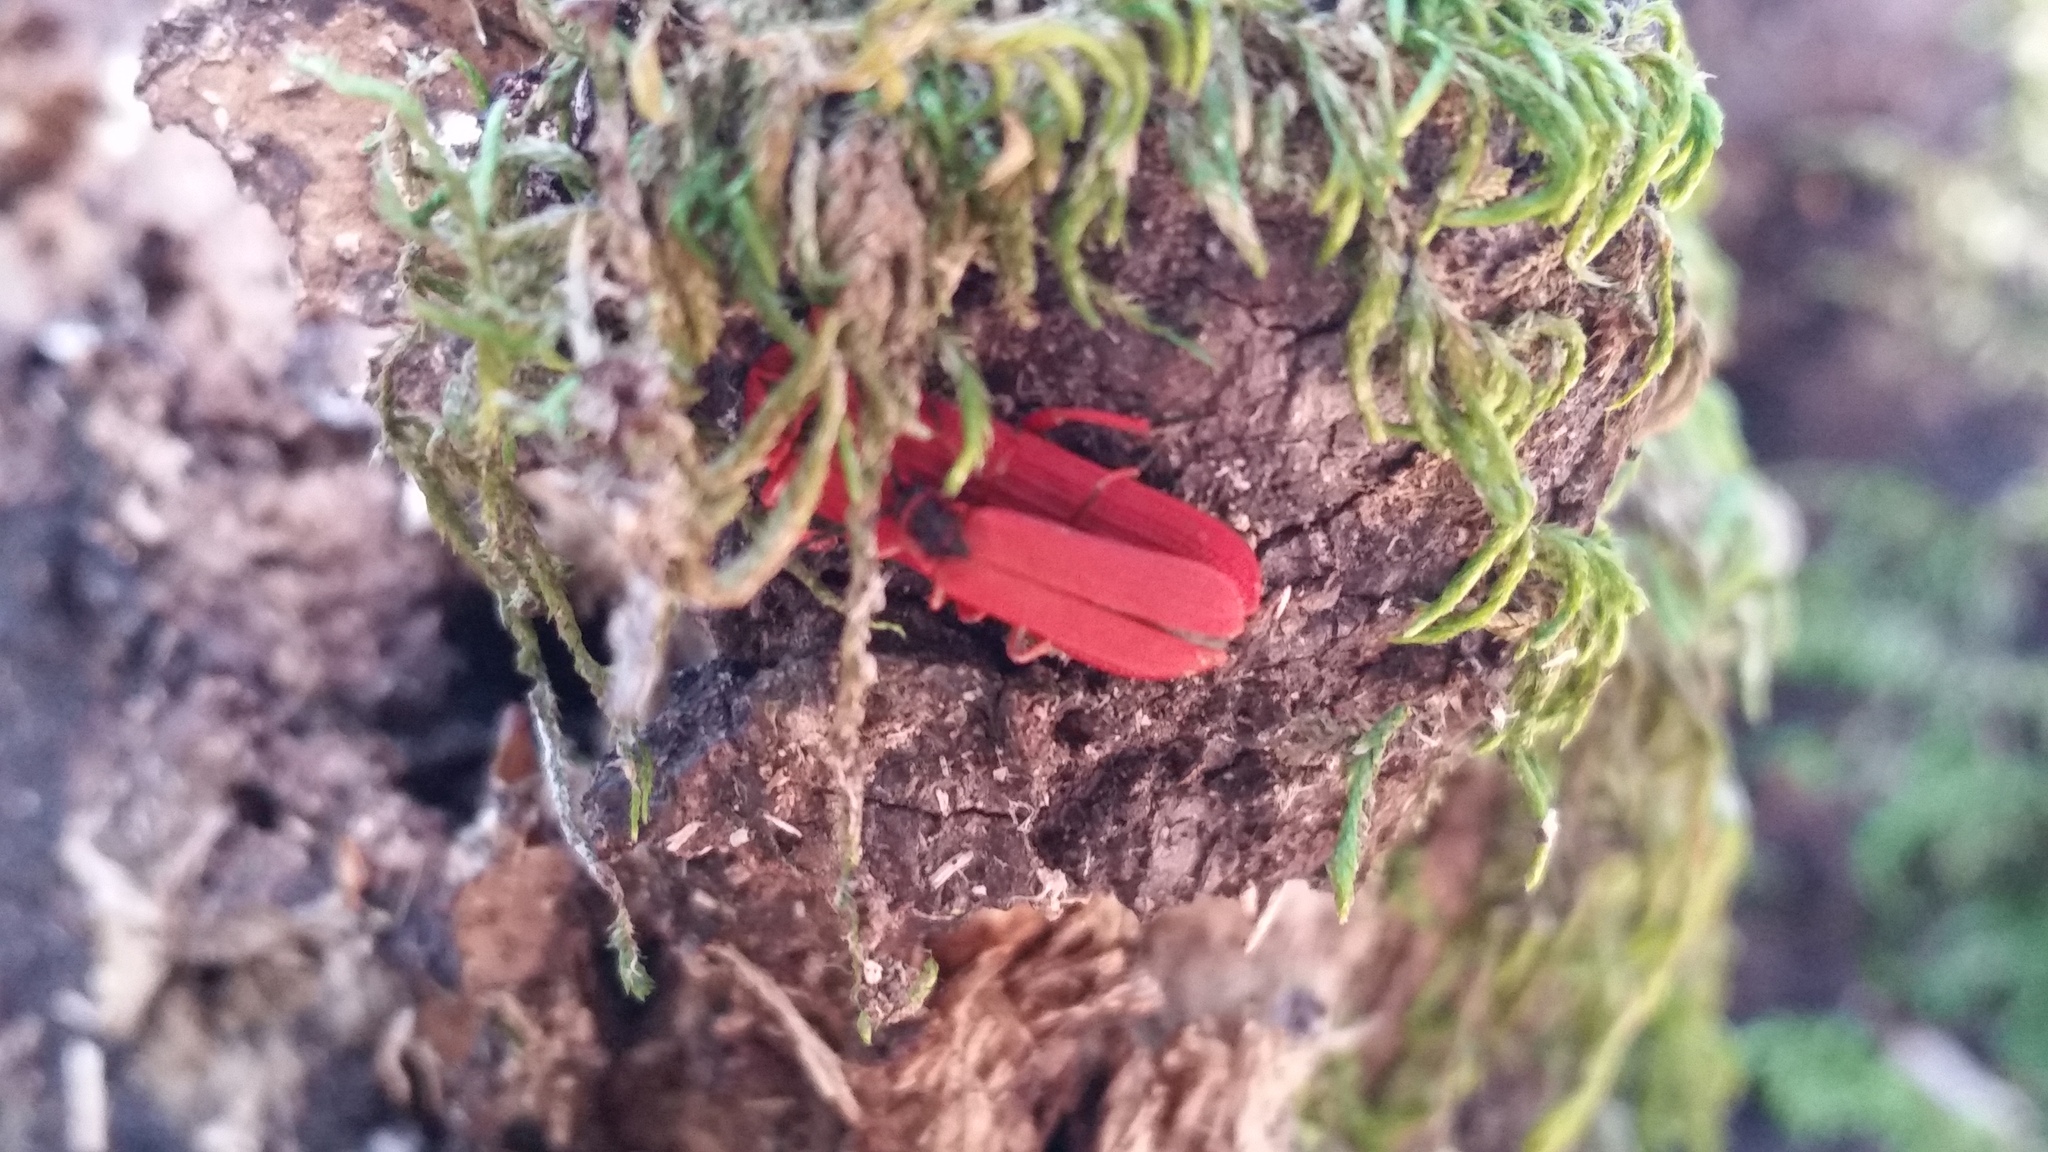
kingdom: Animalia
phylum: Arthropoda
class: Insecta
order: Coleoptera
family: Lycidae
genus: Dictyoptera
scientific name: Dictyoptera simplicipes
